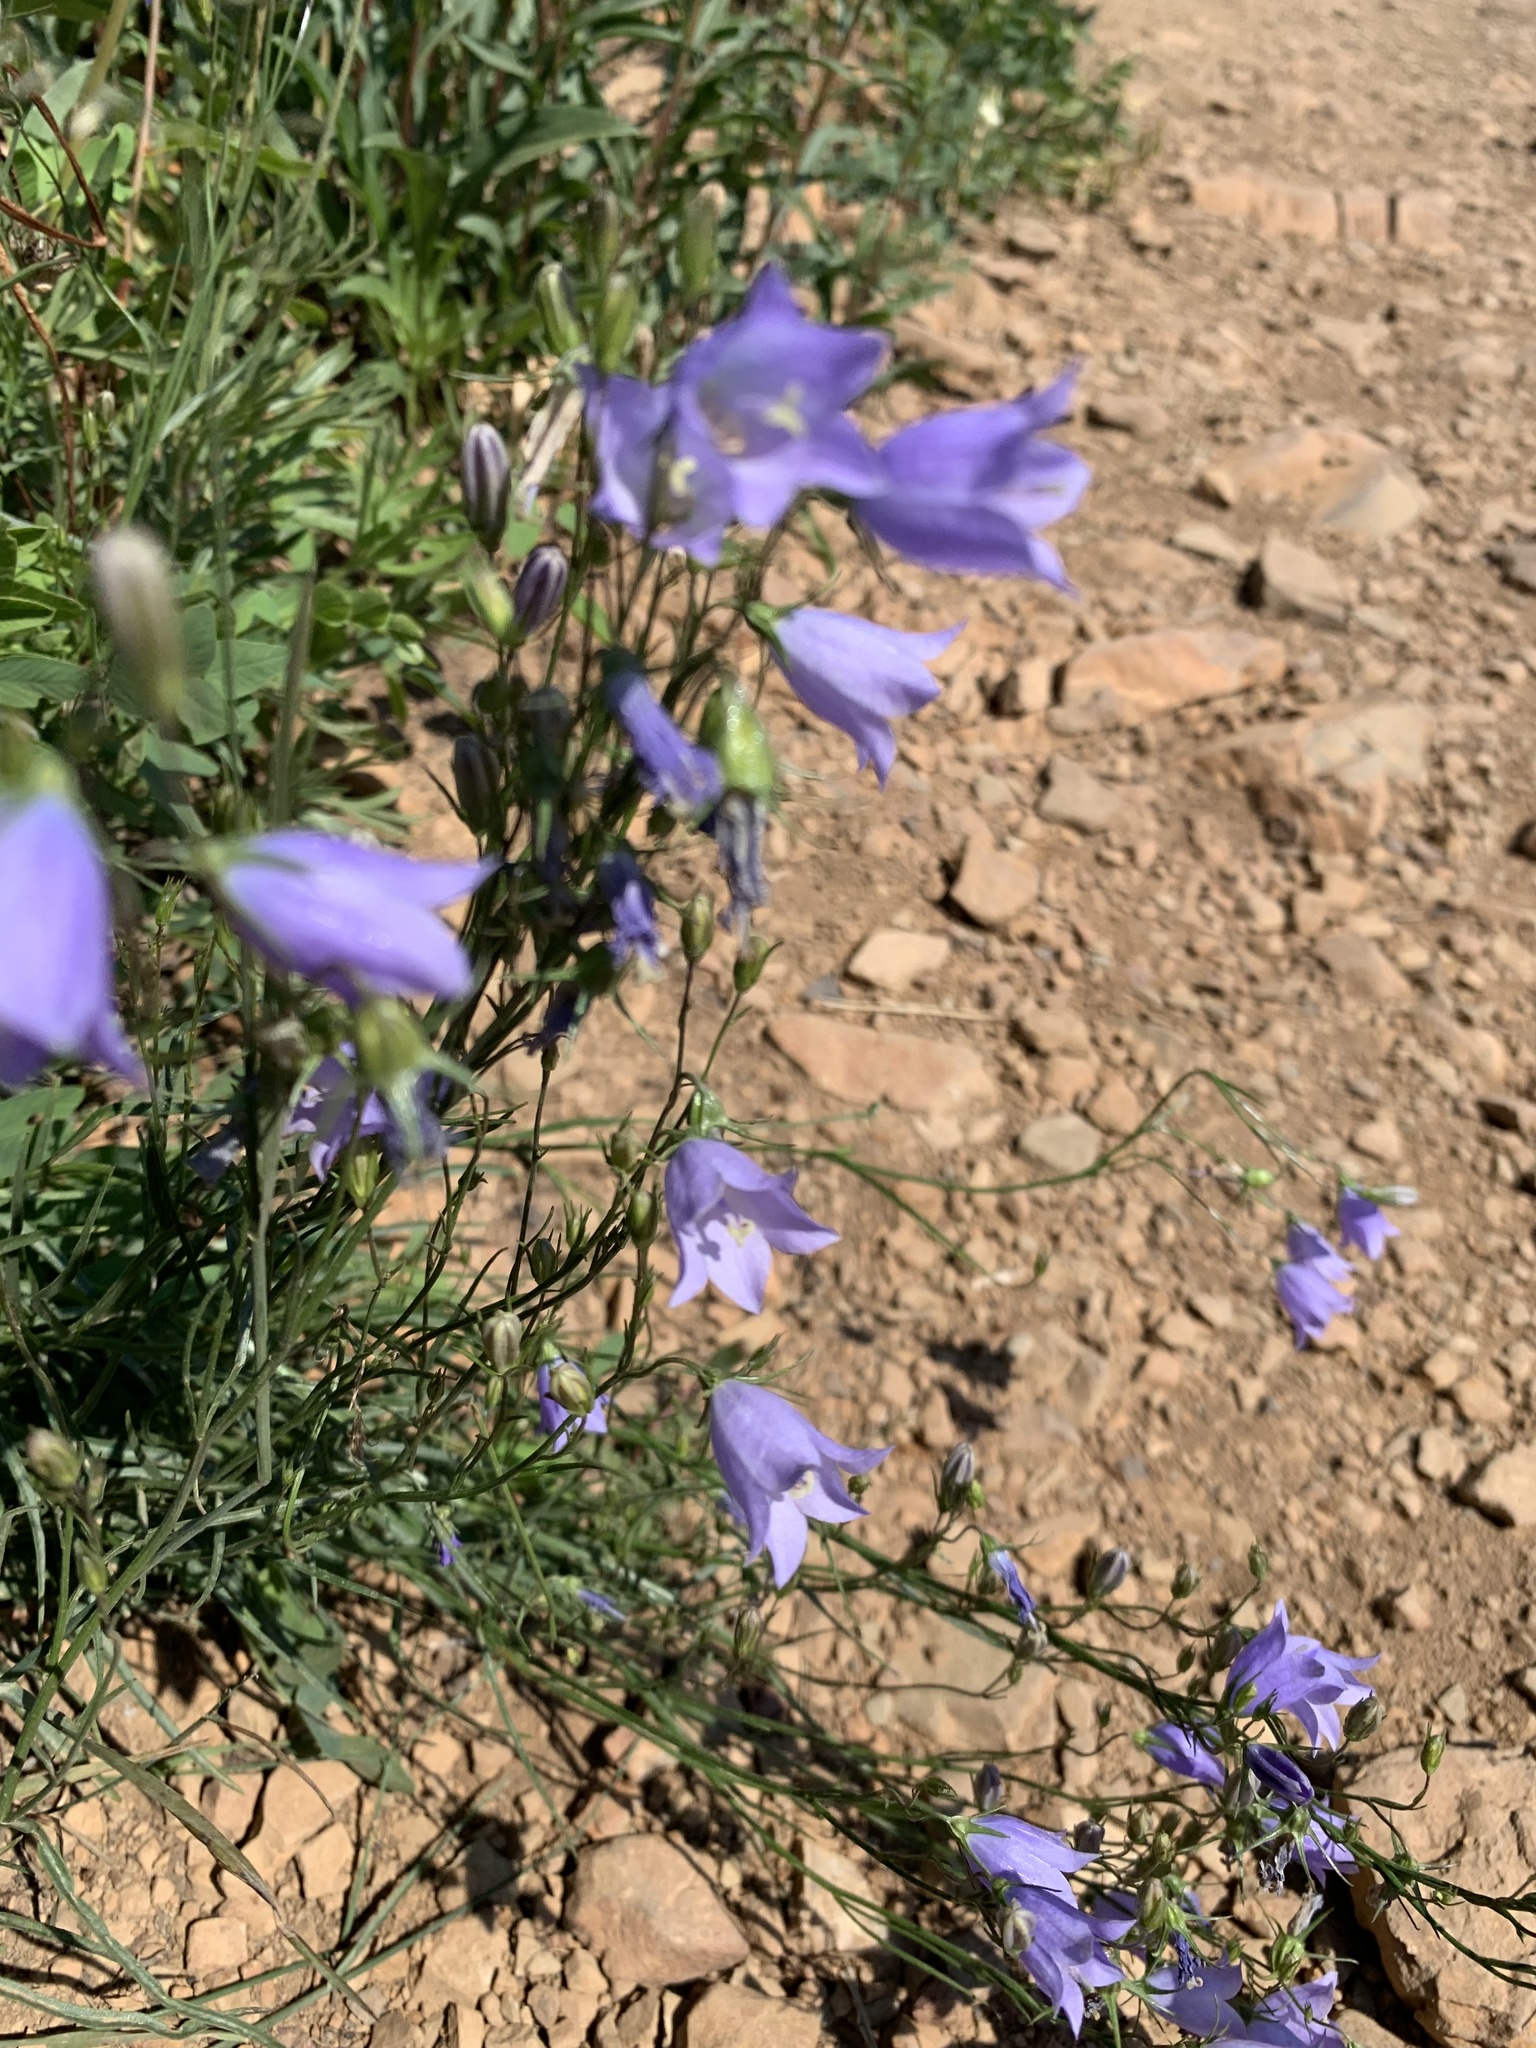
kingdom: Plantae
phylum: Tracheophyta
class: Magnoliopsida
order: Asterales
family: Campanulaceae
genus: Campanula
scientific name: Campanula alaskana
